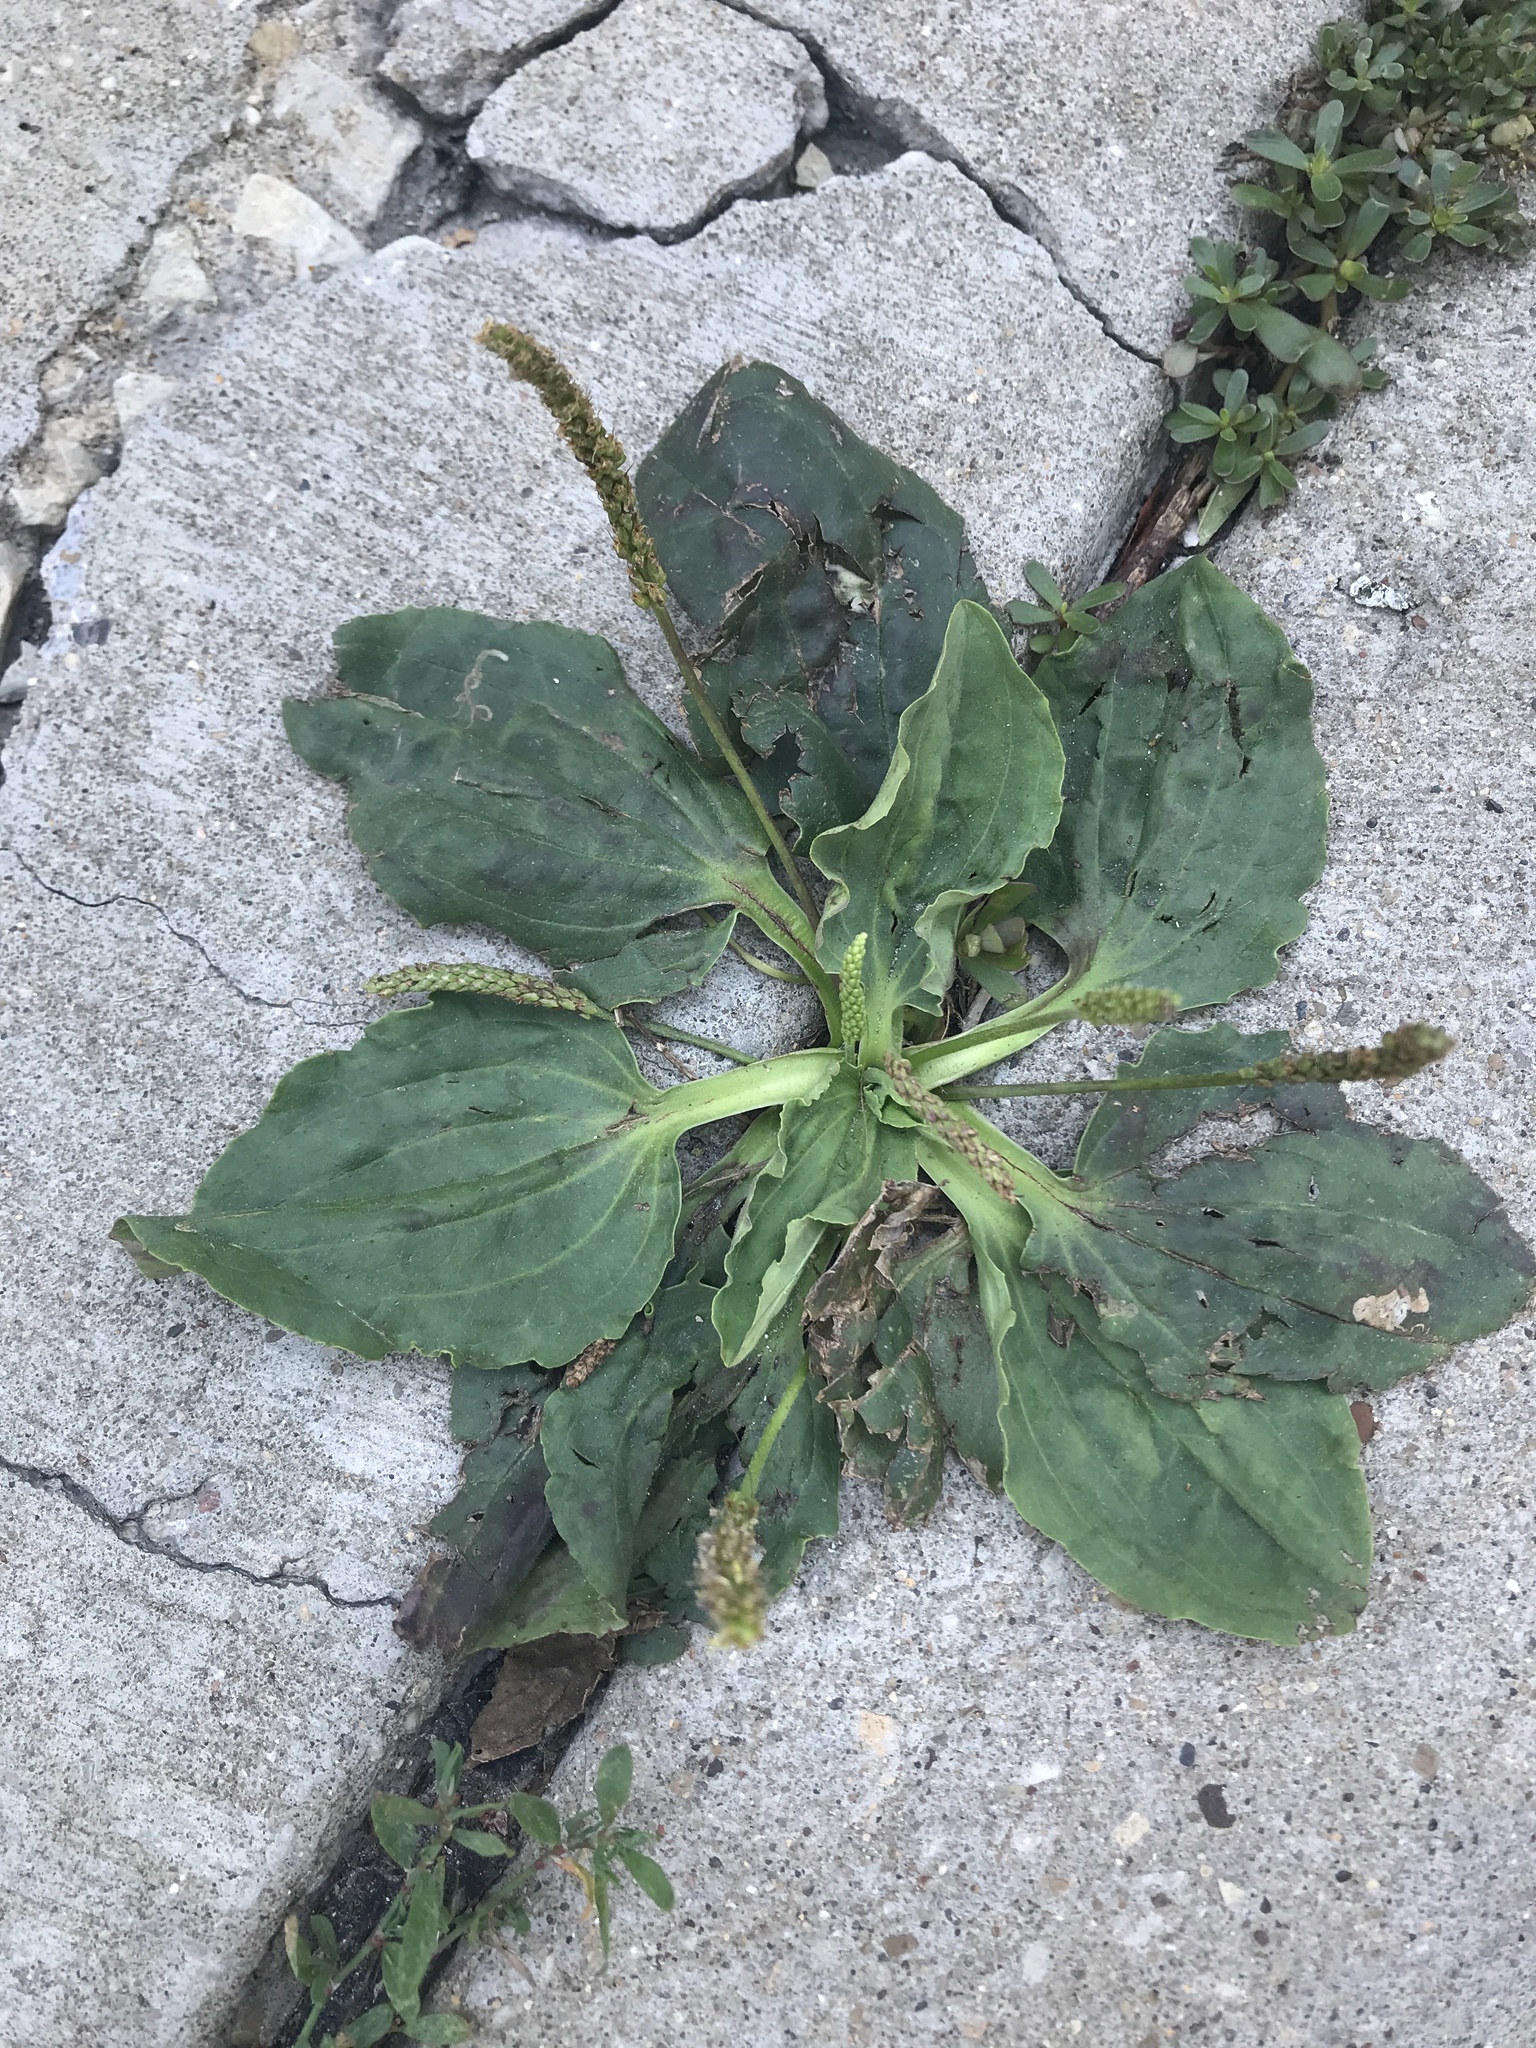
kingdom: Plantae
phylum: Tracheophyta
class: Magnoliopsida
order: Lamiales
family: Plantaginaceae
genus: Plantago
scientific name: Plantago major
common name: Common plantain
